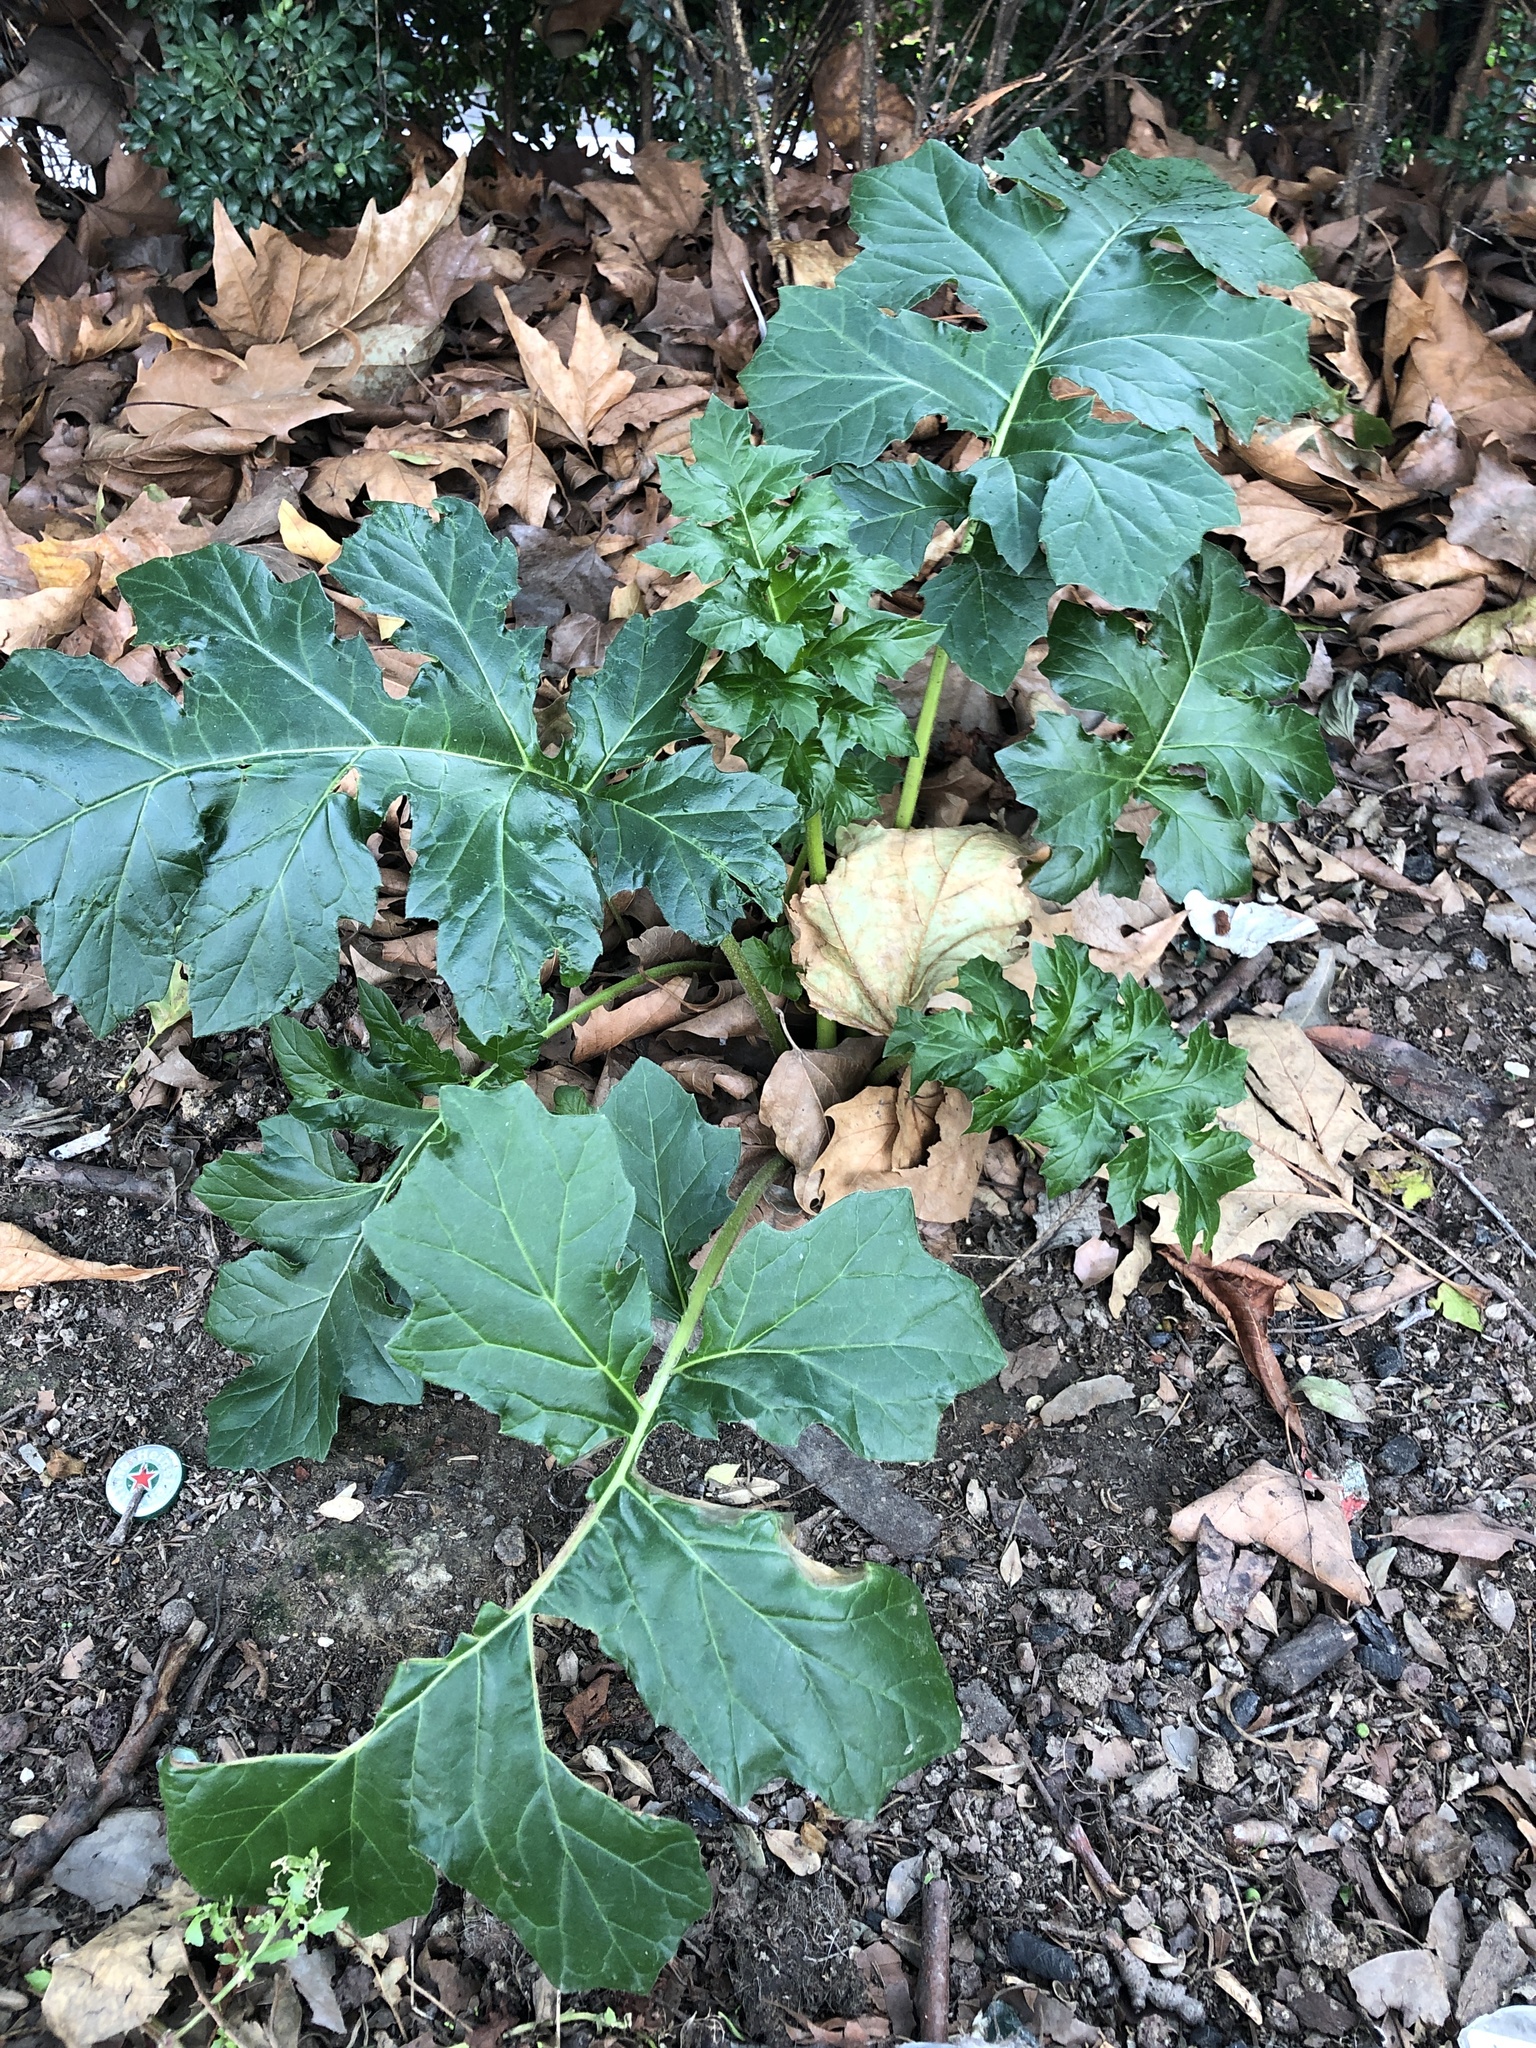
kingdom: Plantae
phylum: Tracheophyta
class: Magnoliopsida
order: Lamiales
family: Acanthaceae
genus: Acanthus
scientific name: Acanthus mollis
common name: Bear's-breech
